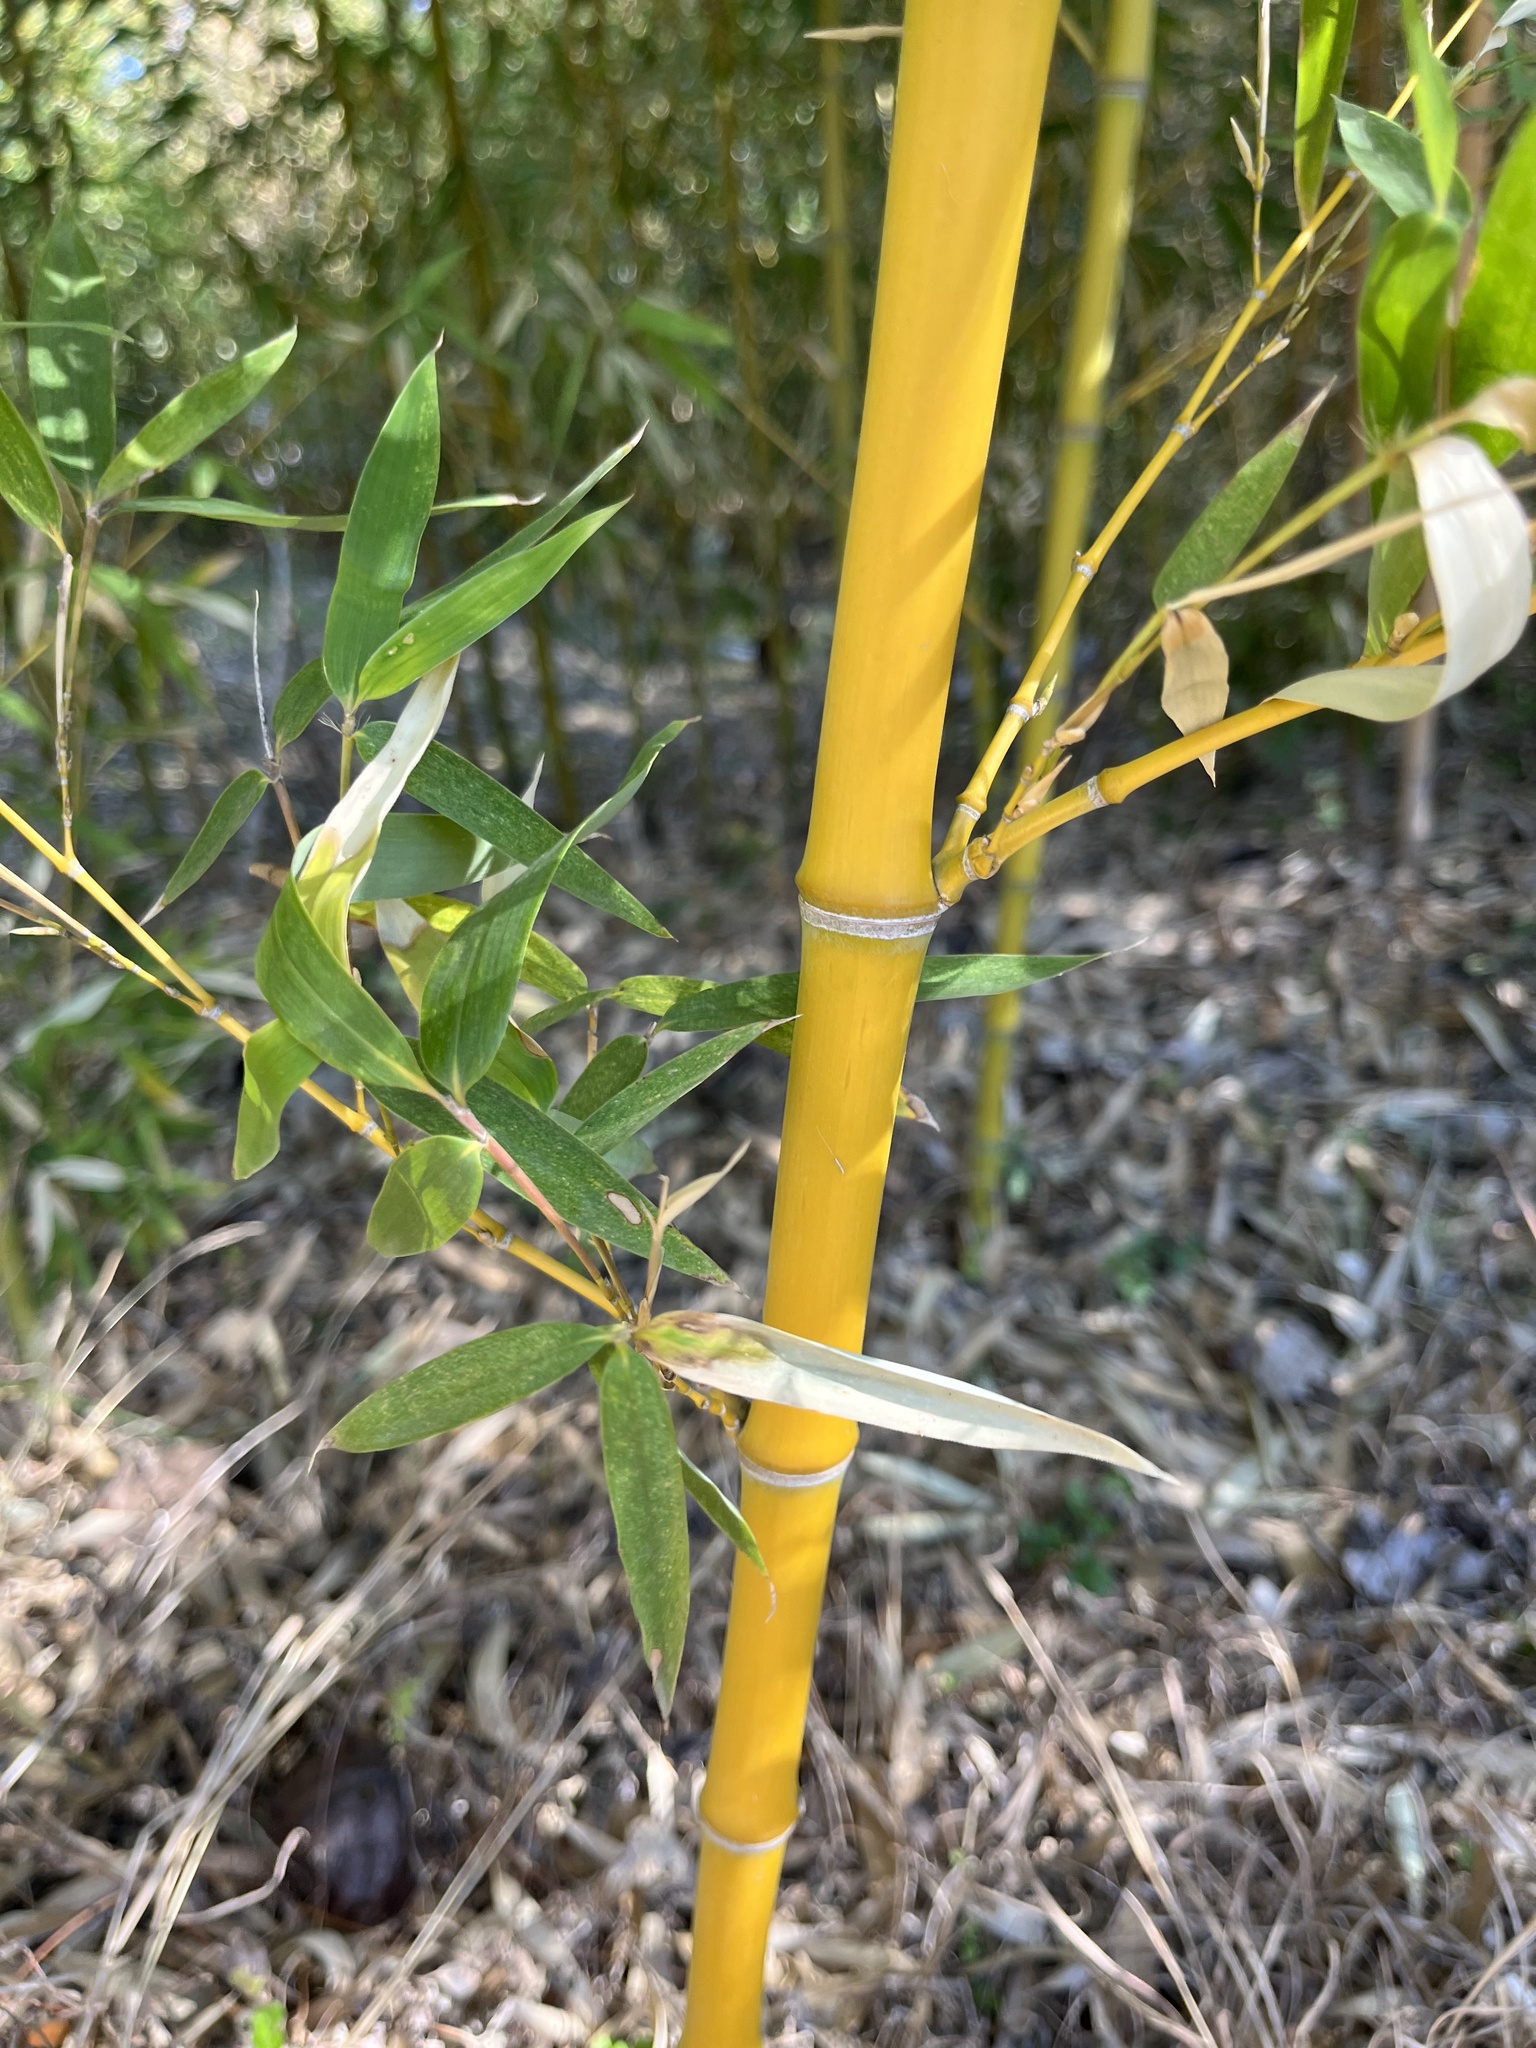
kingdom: Plantae
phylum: Tracheophyta
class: Liliopsida
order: Poales
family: Poaceae
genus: Phyllostachys
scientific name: Phyllostachys aurea
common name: Golden bamboo
